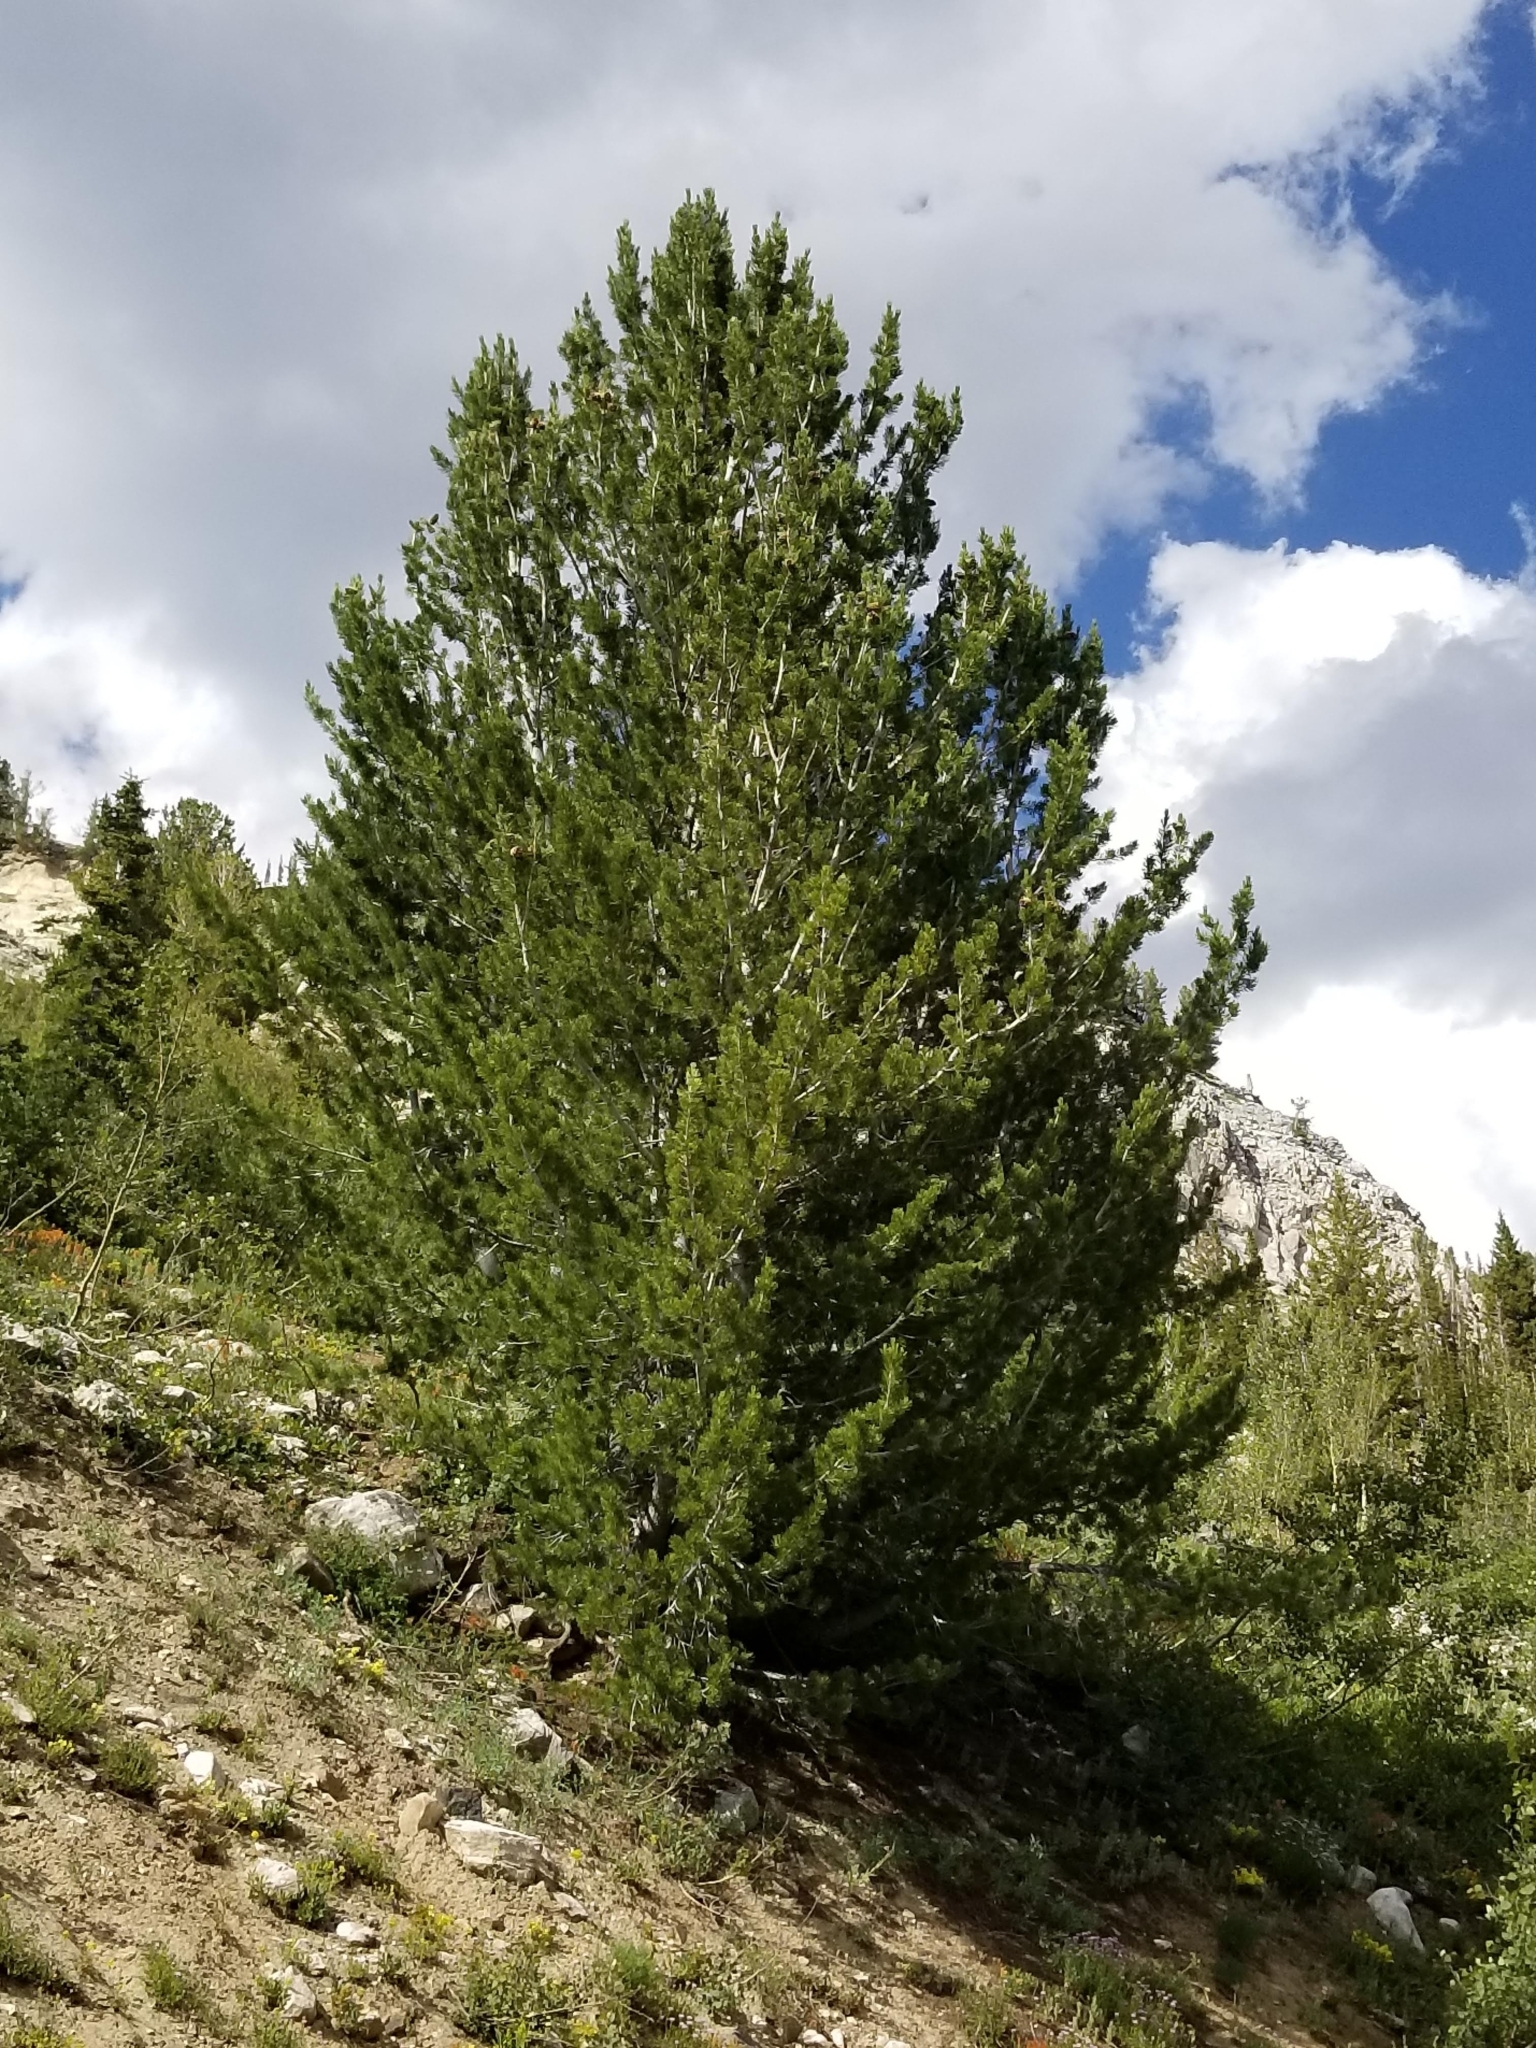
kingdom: Plantae
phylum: Tracheophyta
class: Pinopsida
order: Pinales
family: Pinaceae
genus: Pinus
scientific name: Pinus flexilis
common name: Limber pine
